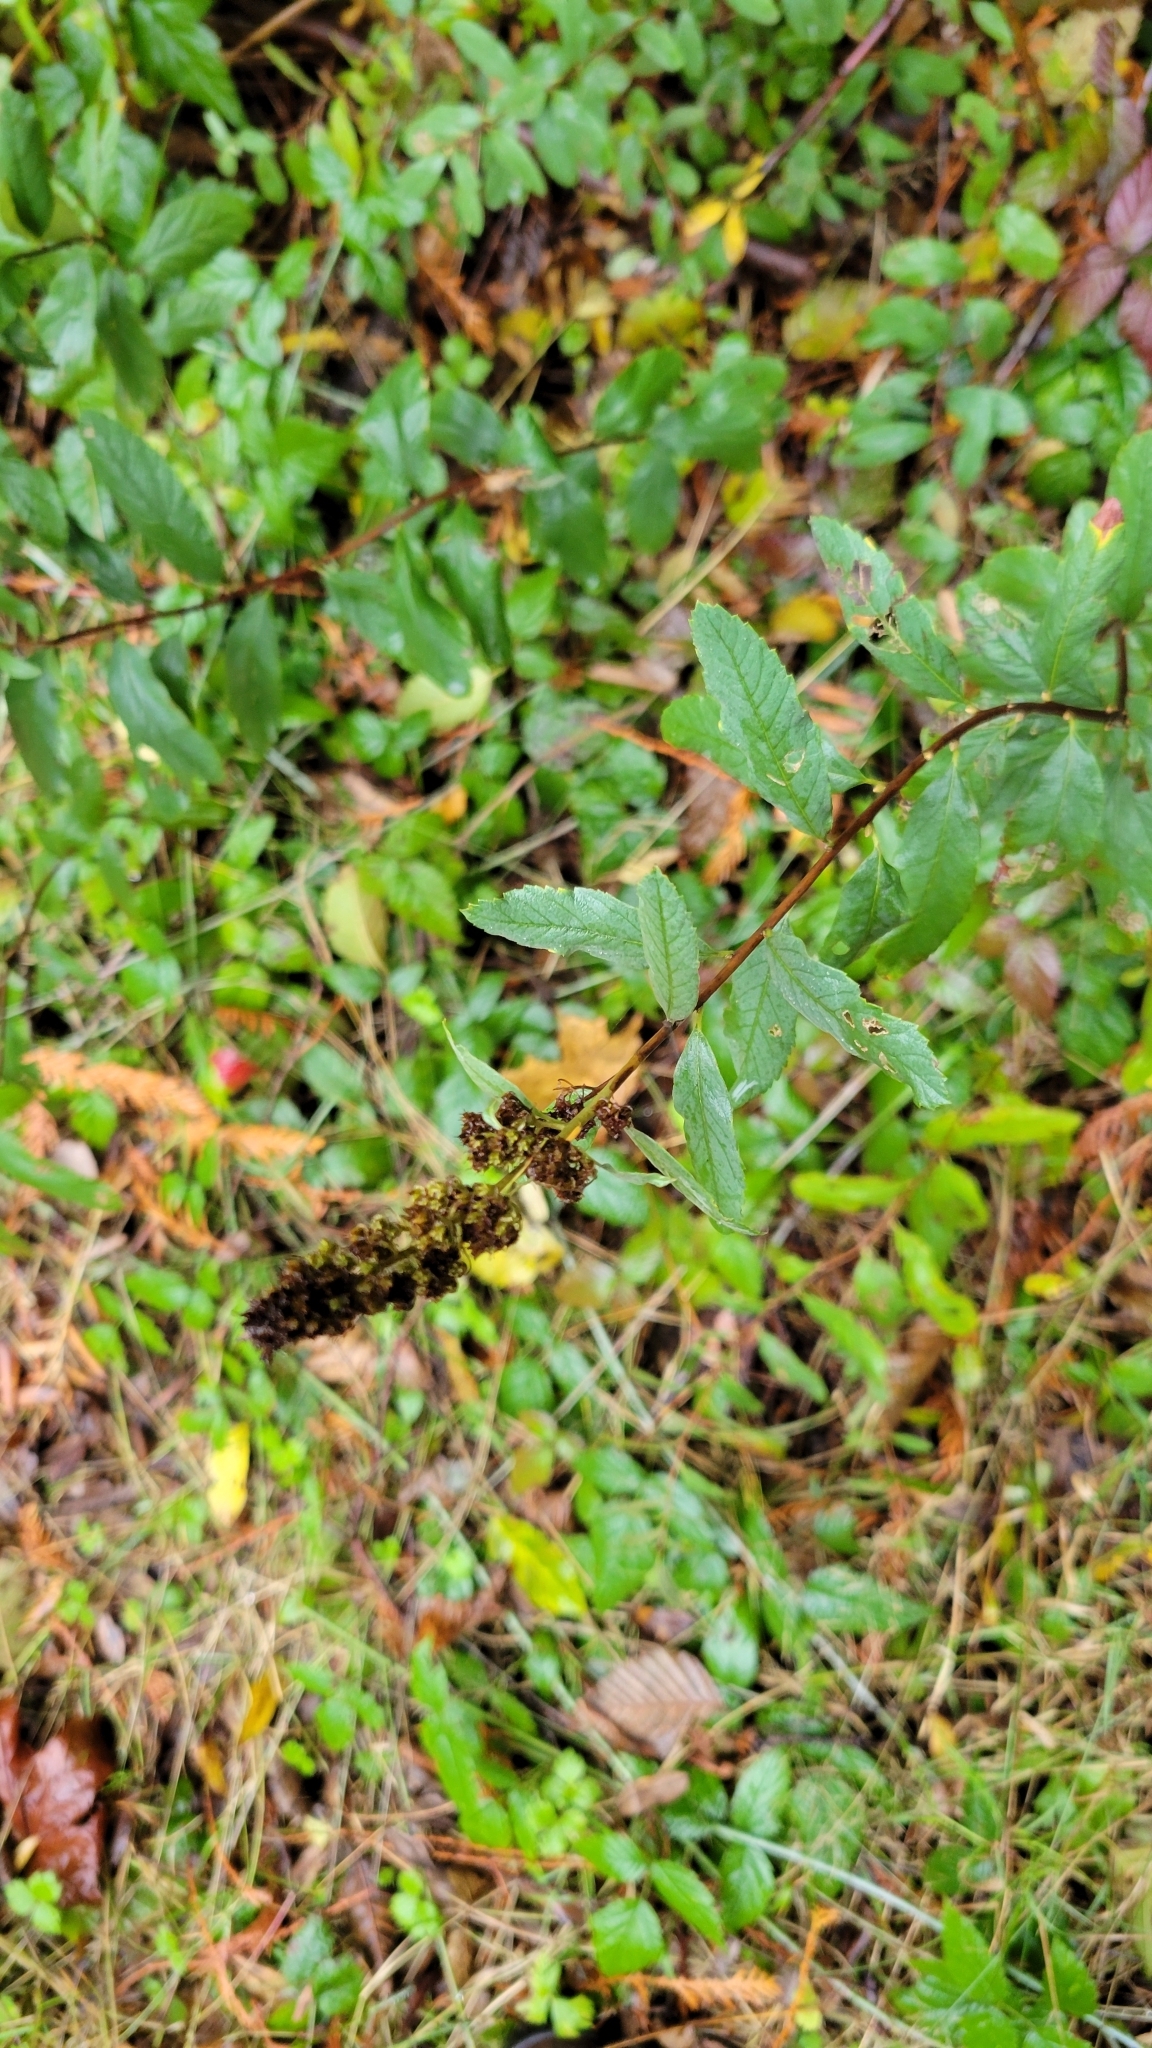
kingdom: Plantae
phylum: Tracheophyta
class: Magnoliopsida
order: Rosales
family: Rosaceae
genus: Spiraea
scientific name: Spiraea douglasii
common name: Steeplebush
